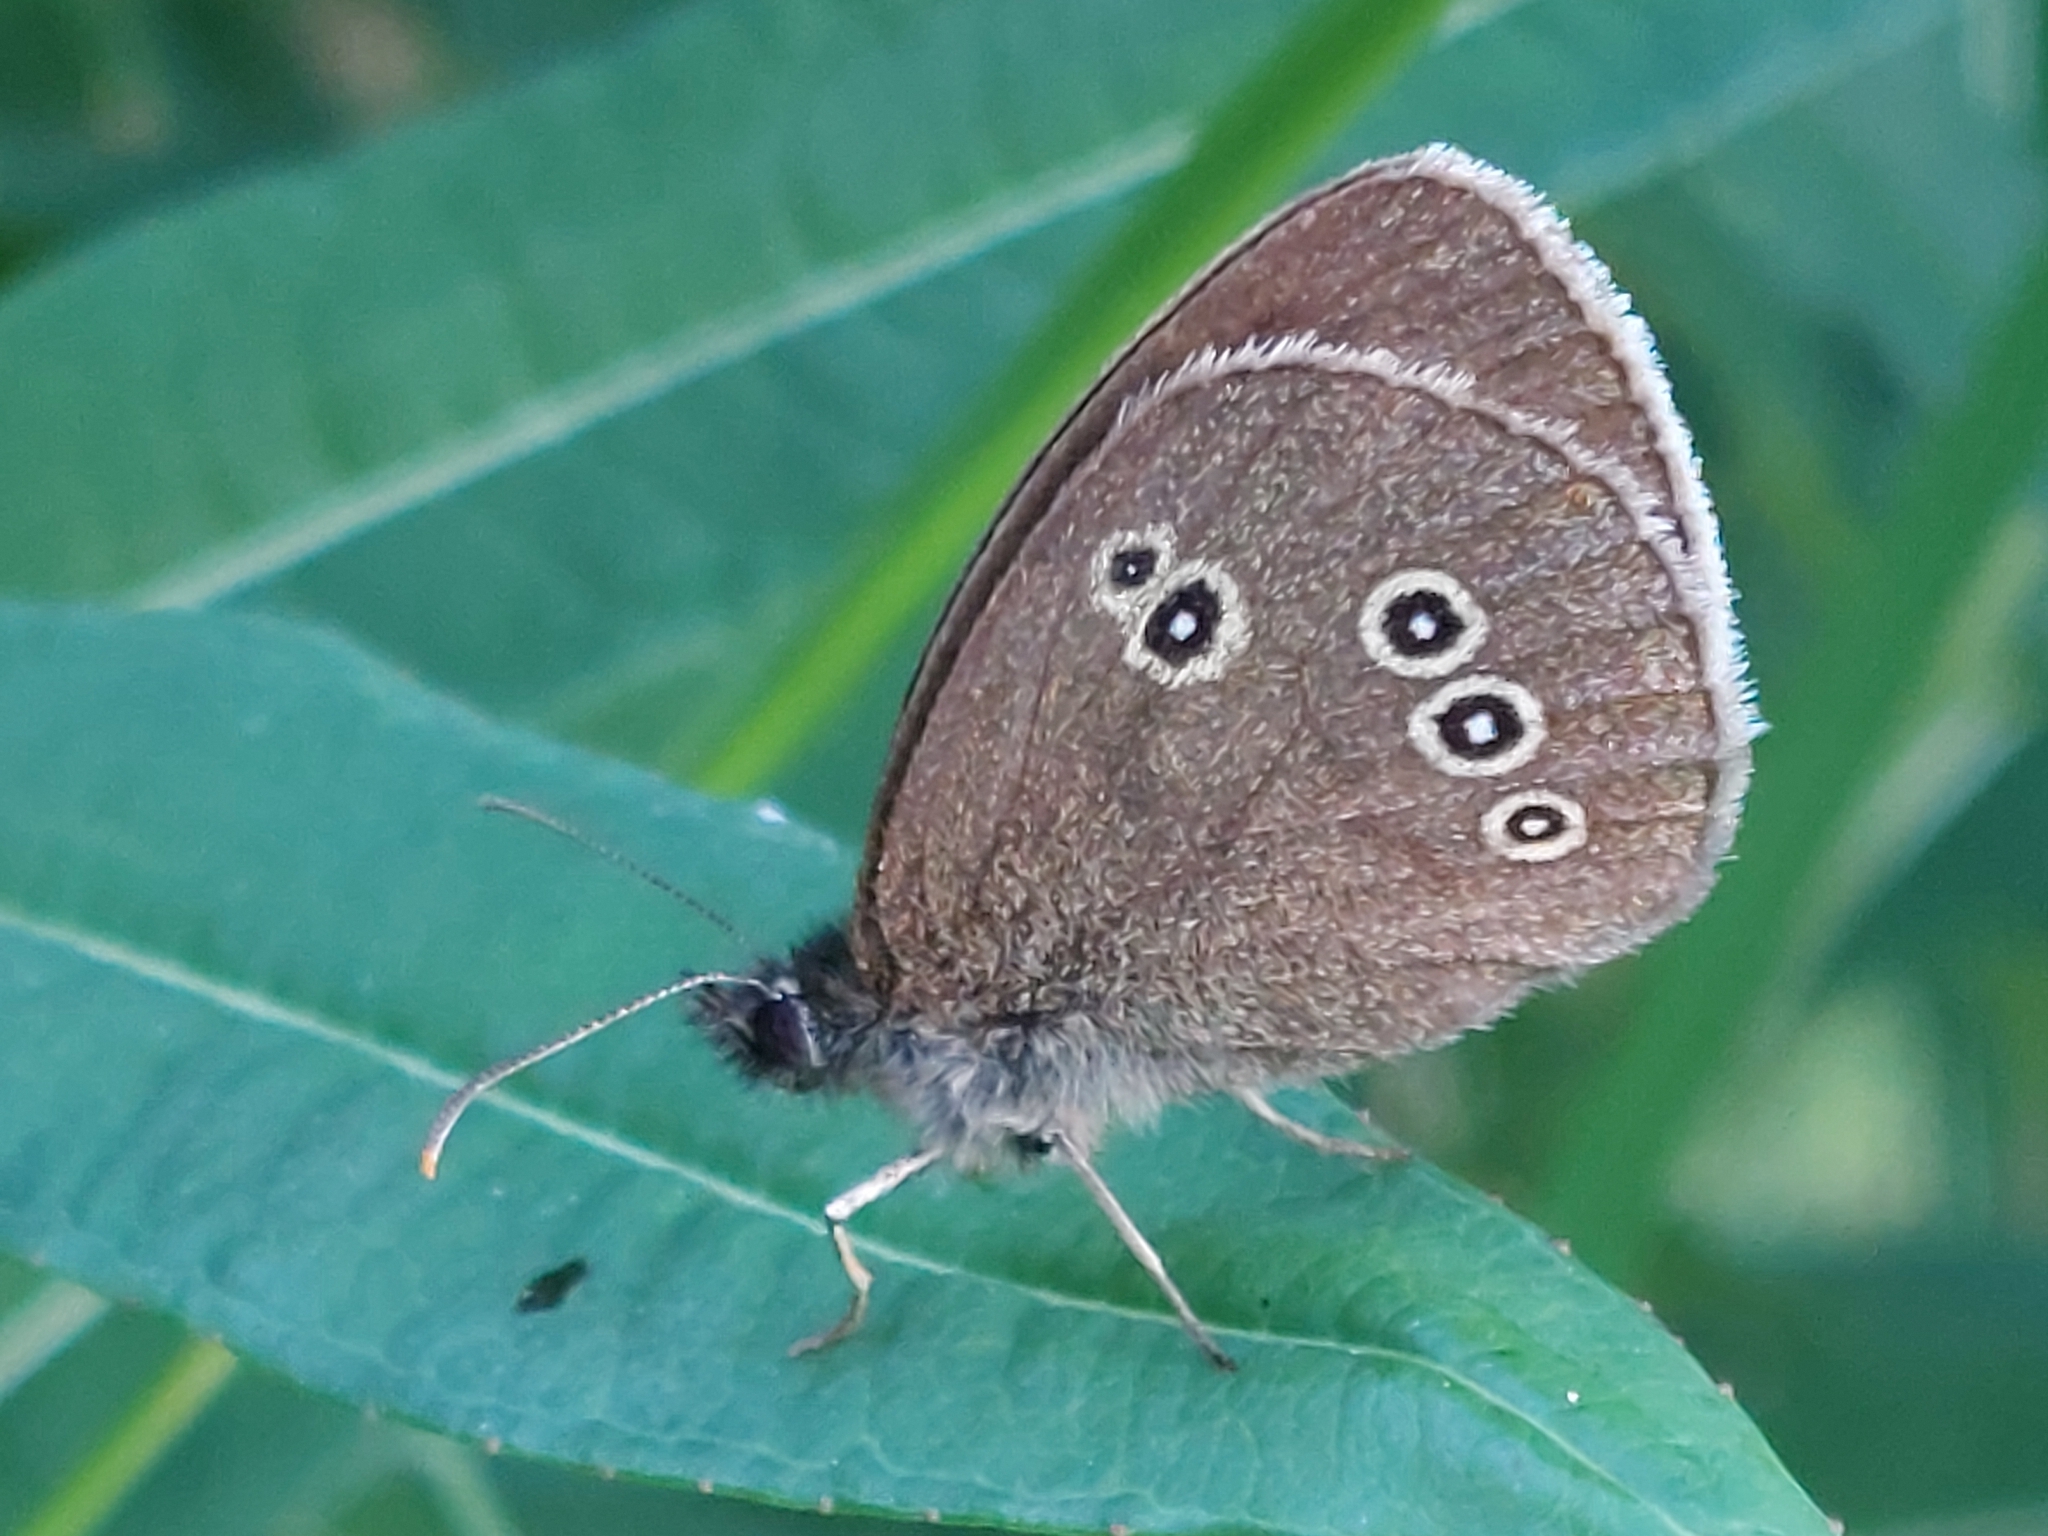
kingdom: Animalia
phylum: Arthropoda
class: Insecta
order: Lepidoptera
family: Nymphalidae
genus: Aphantopus
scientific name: Aphantopus hyperantus
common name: Ringlet
